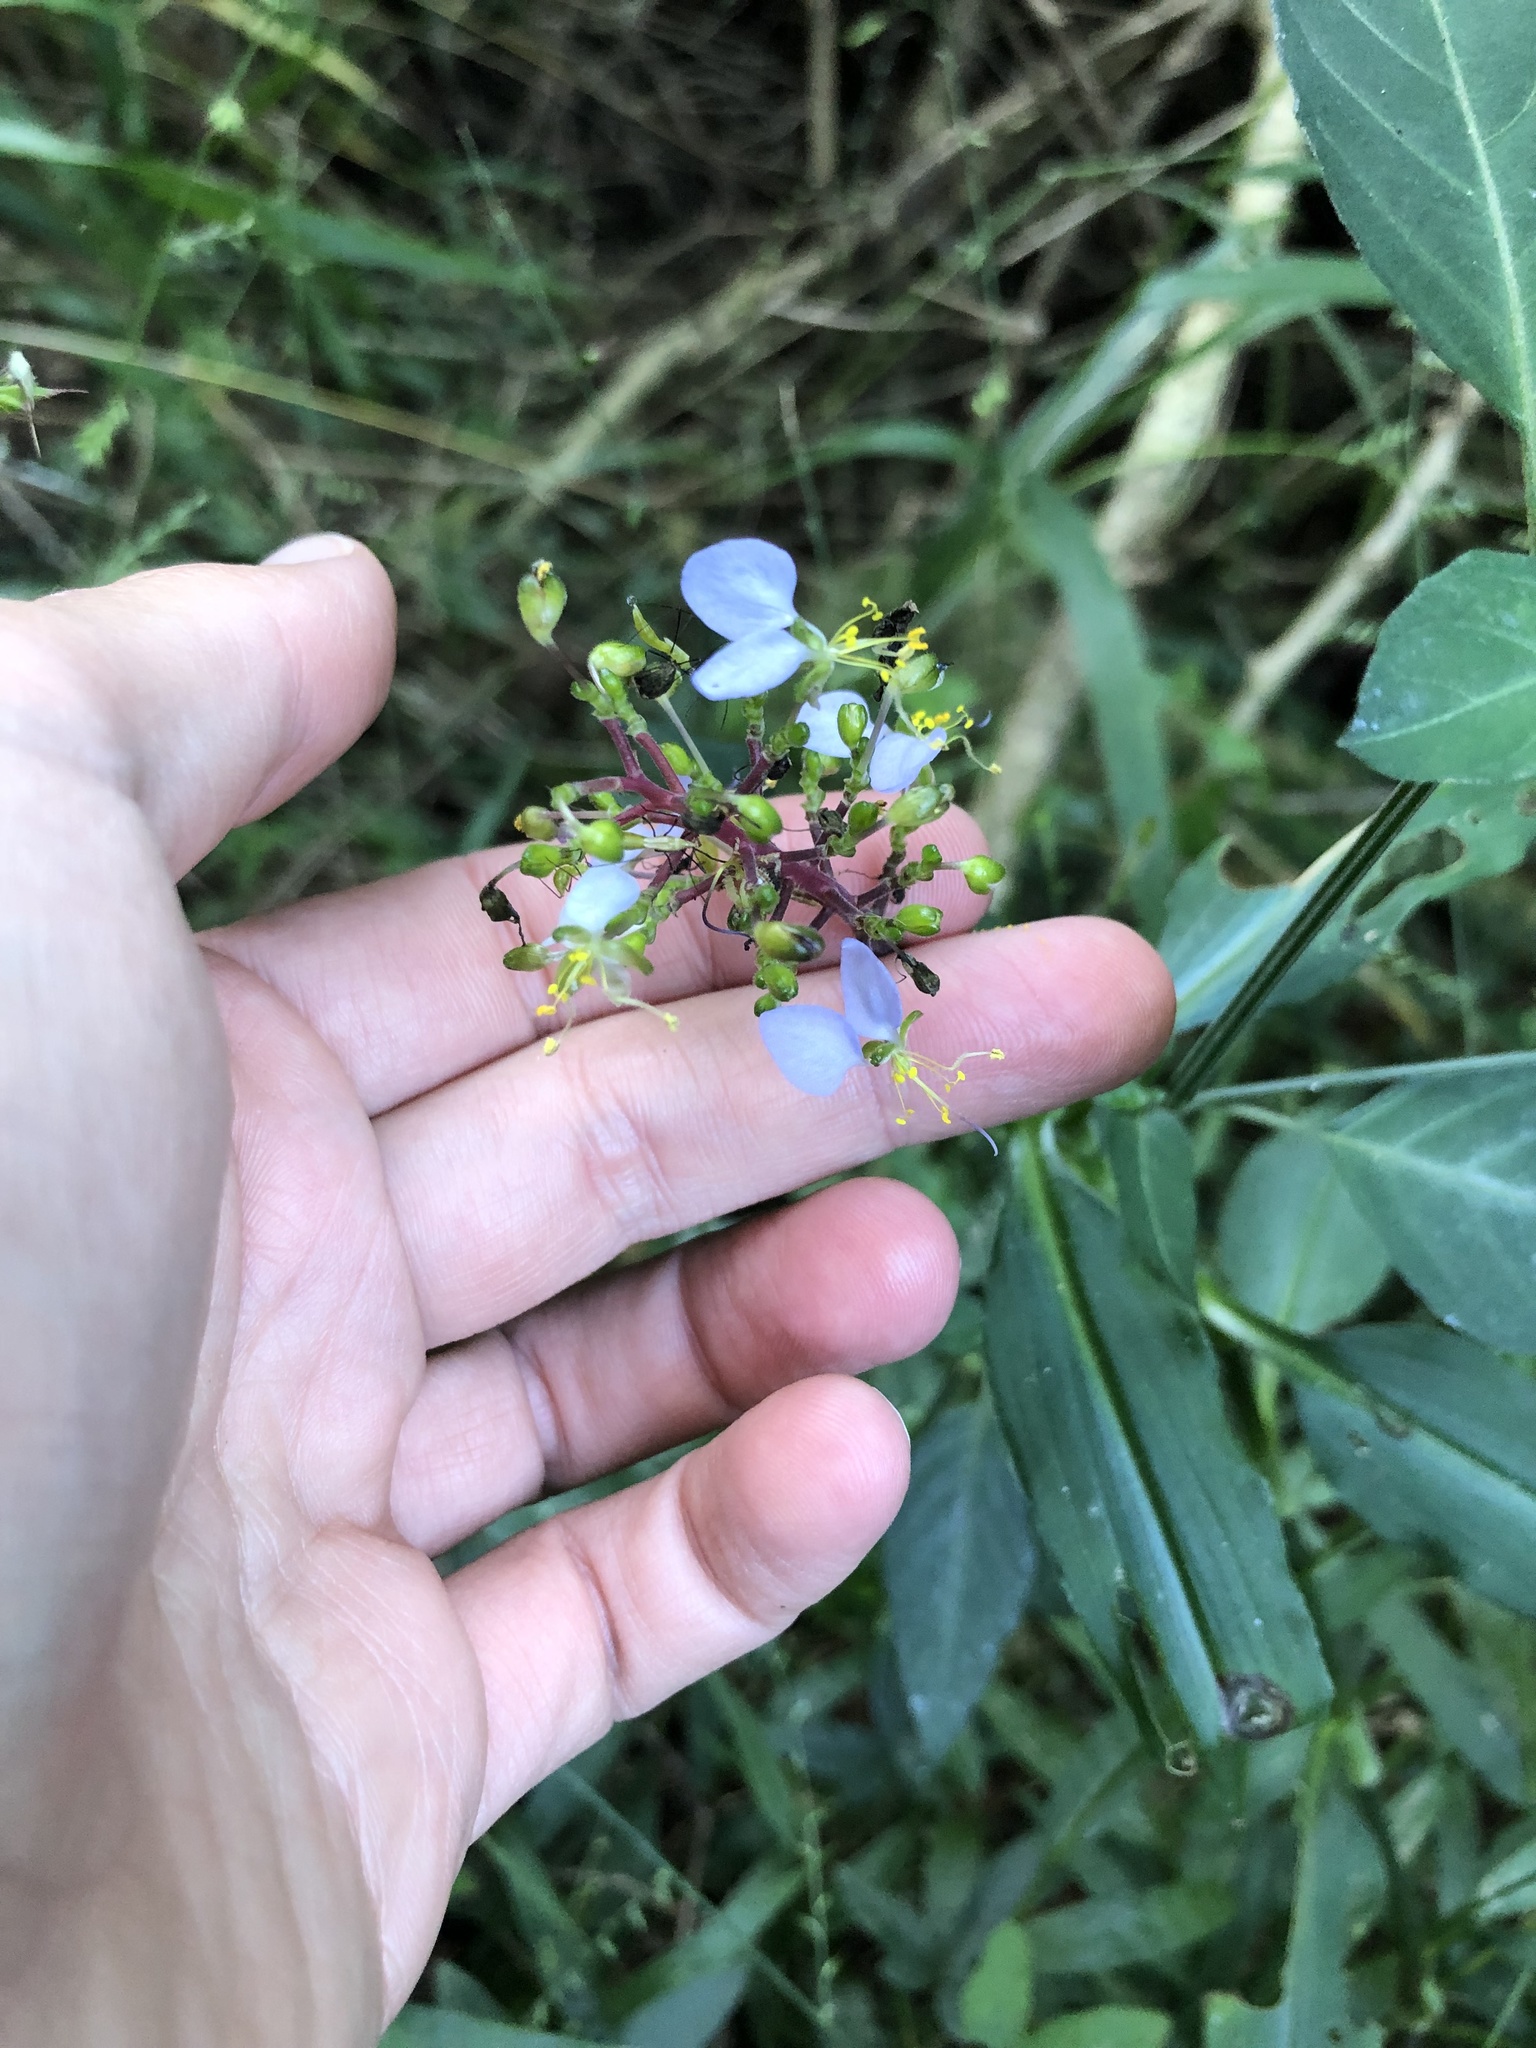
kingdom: Plantae
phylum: Tracheophyta
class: Liliopsida
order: Commelinales
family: Commelinaceae
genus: Aneilema
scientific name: Aneilema dregeanum
